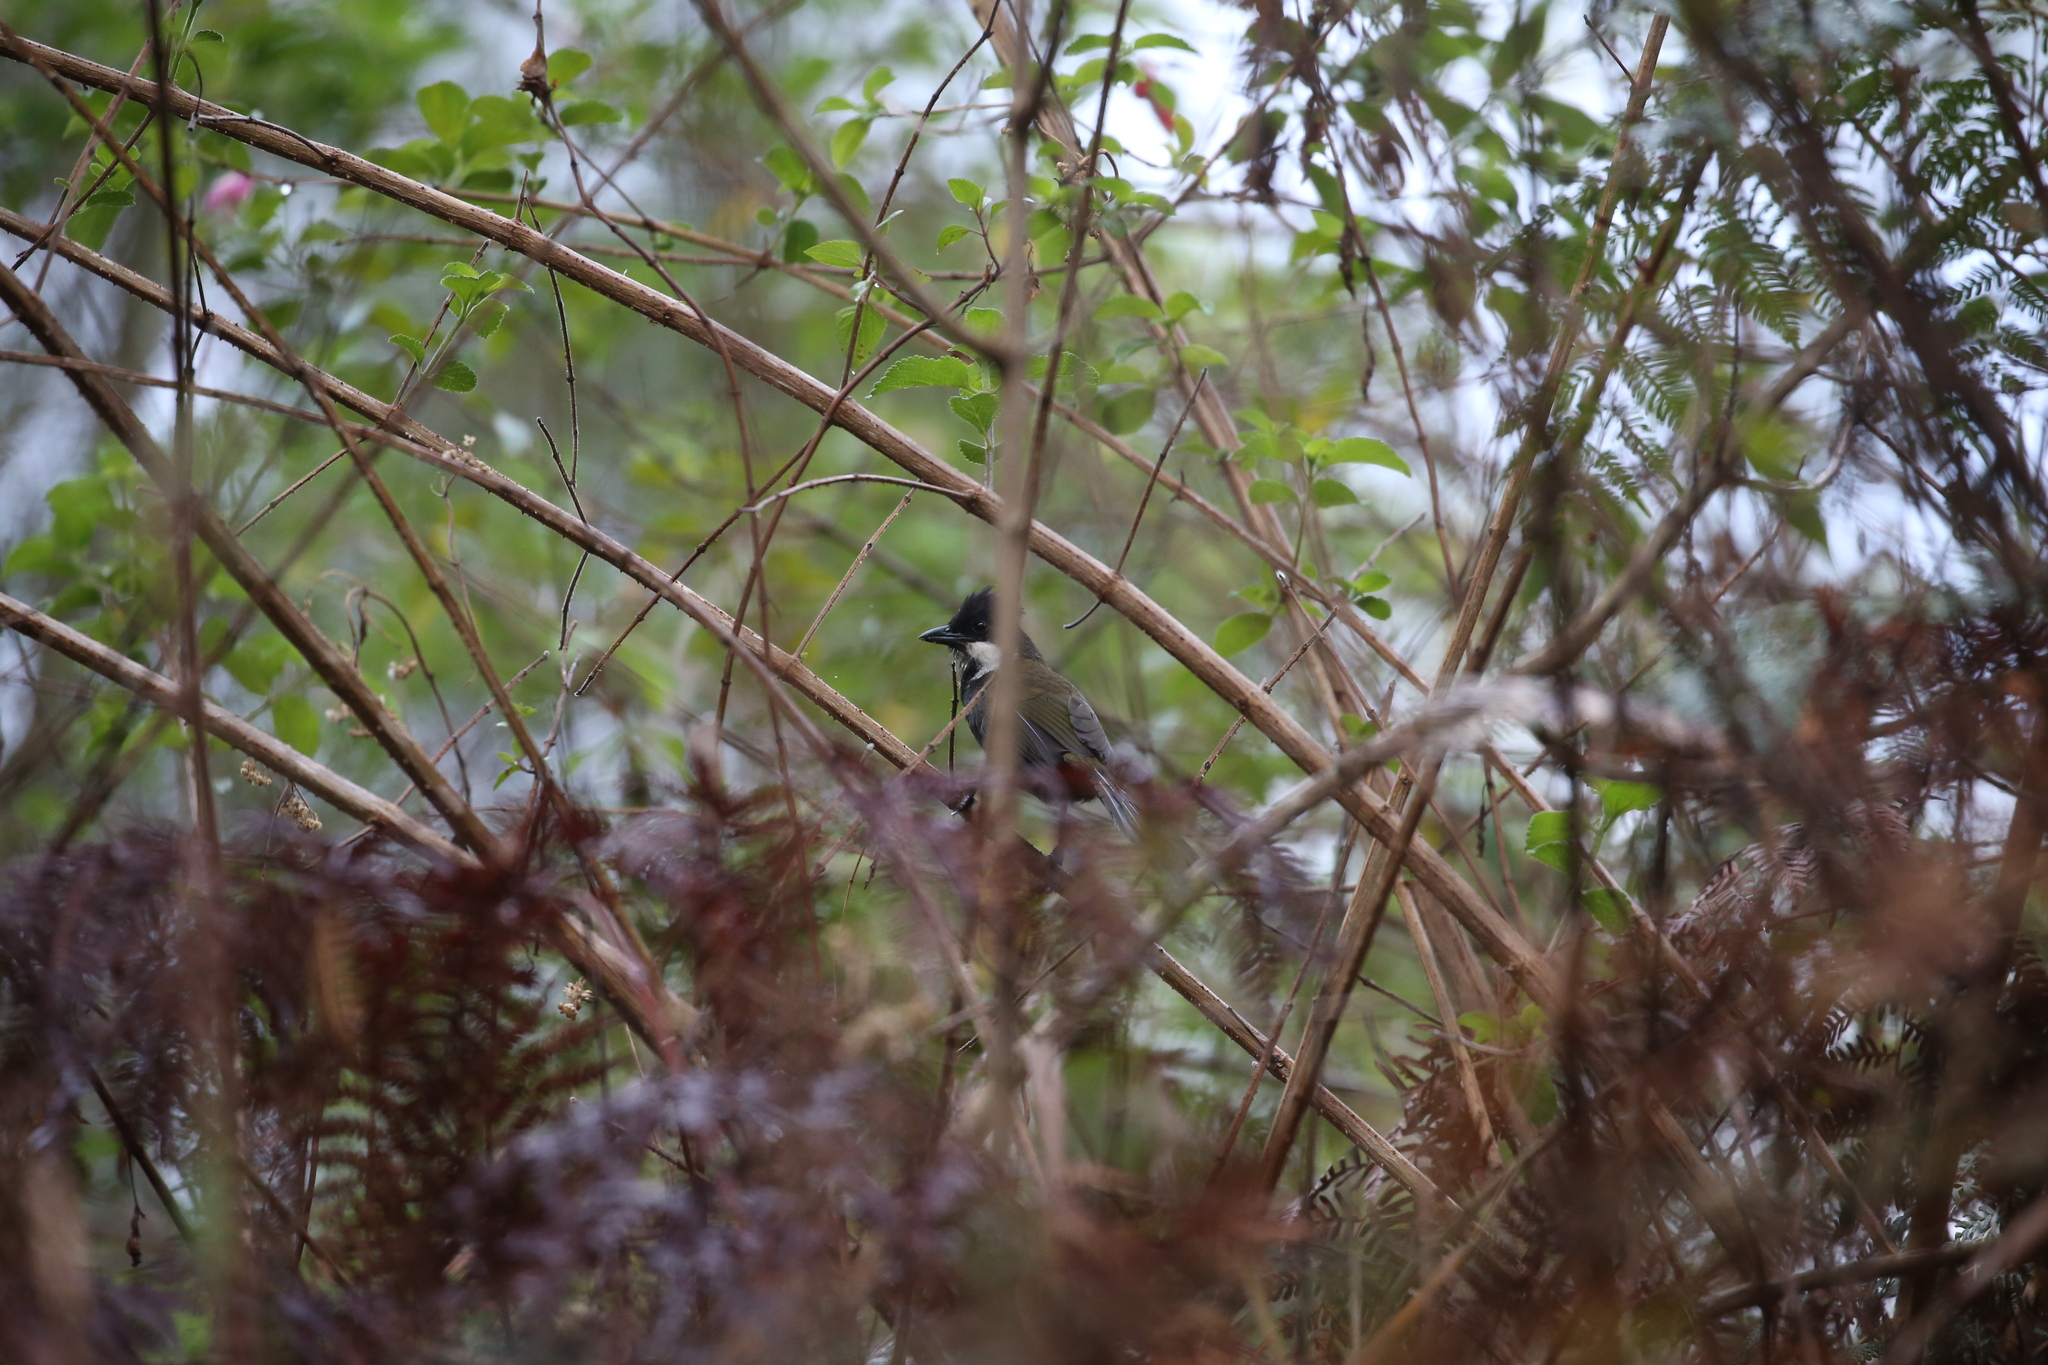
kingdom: Animalia
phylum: Chordata
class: Aves
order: Passeriformes
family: Psophodidae
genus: Psophodes
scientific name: Psophodes olivaceus
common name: Eastern whipbird
